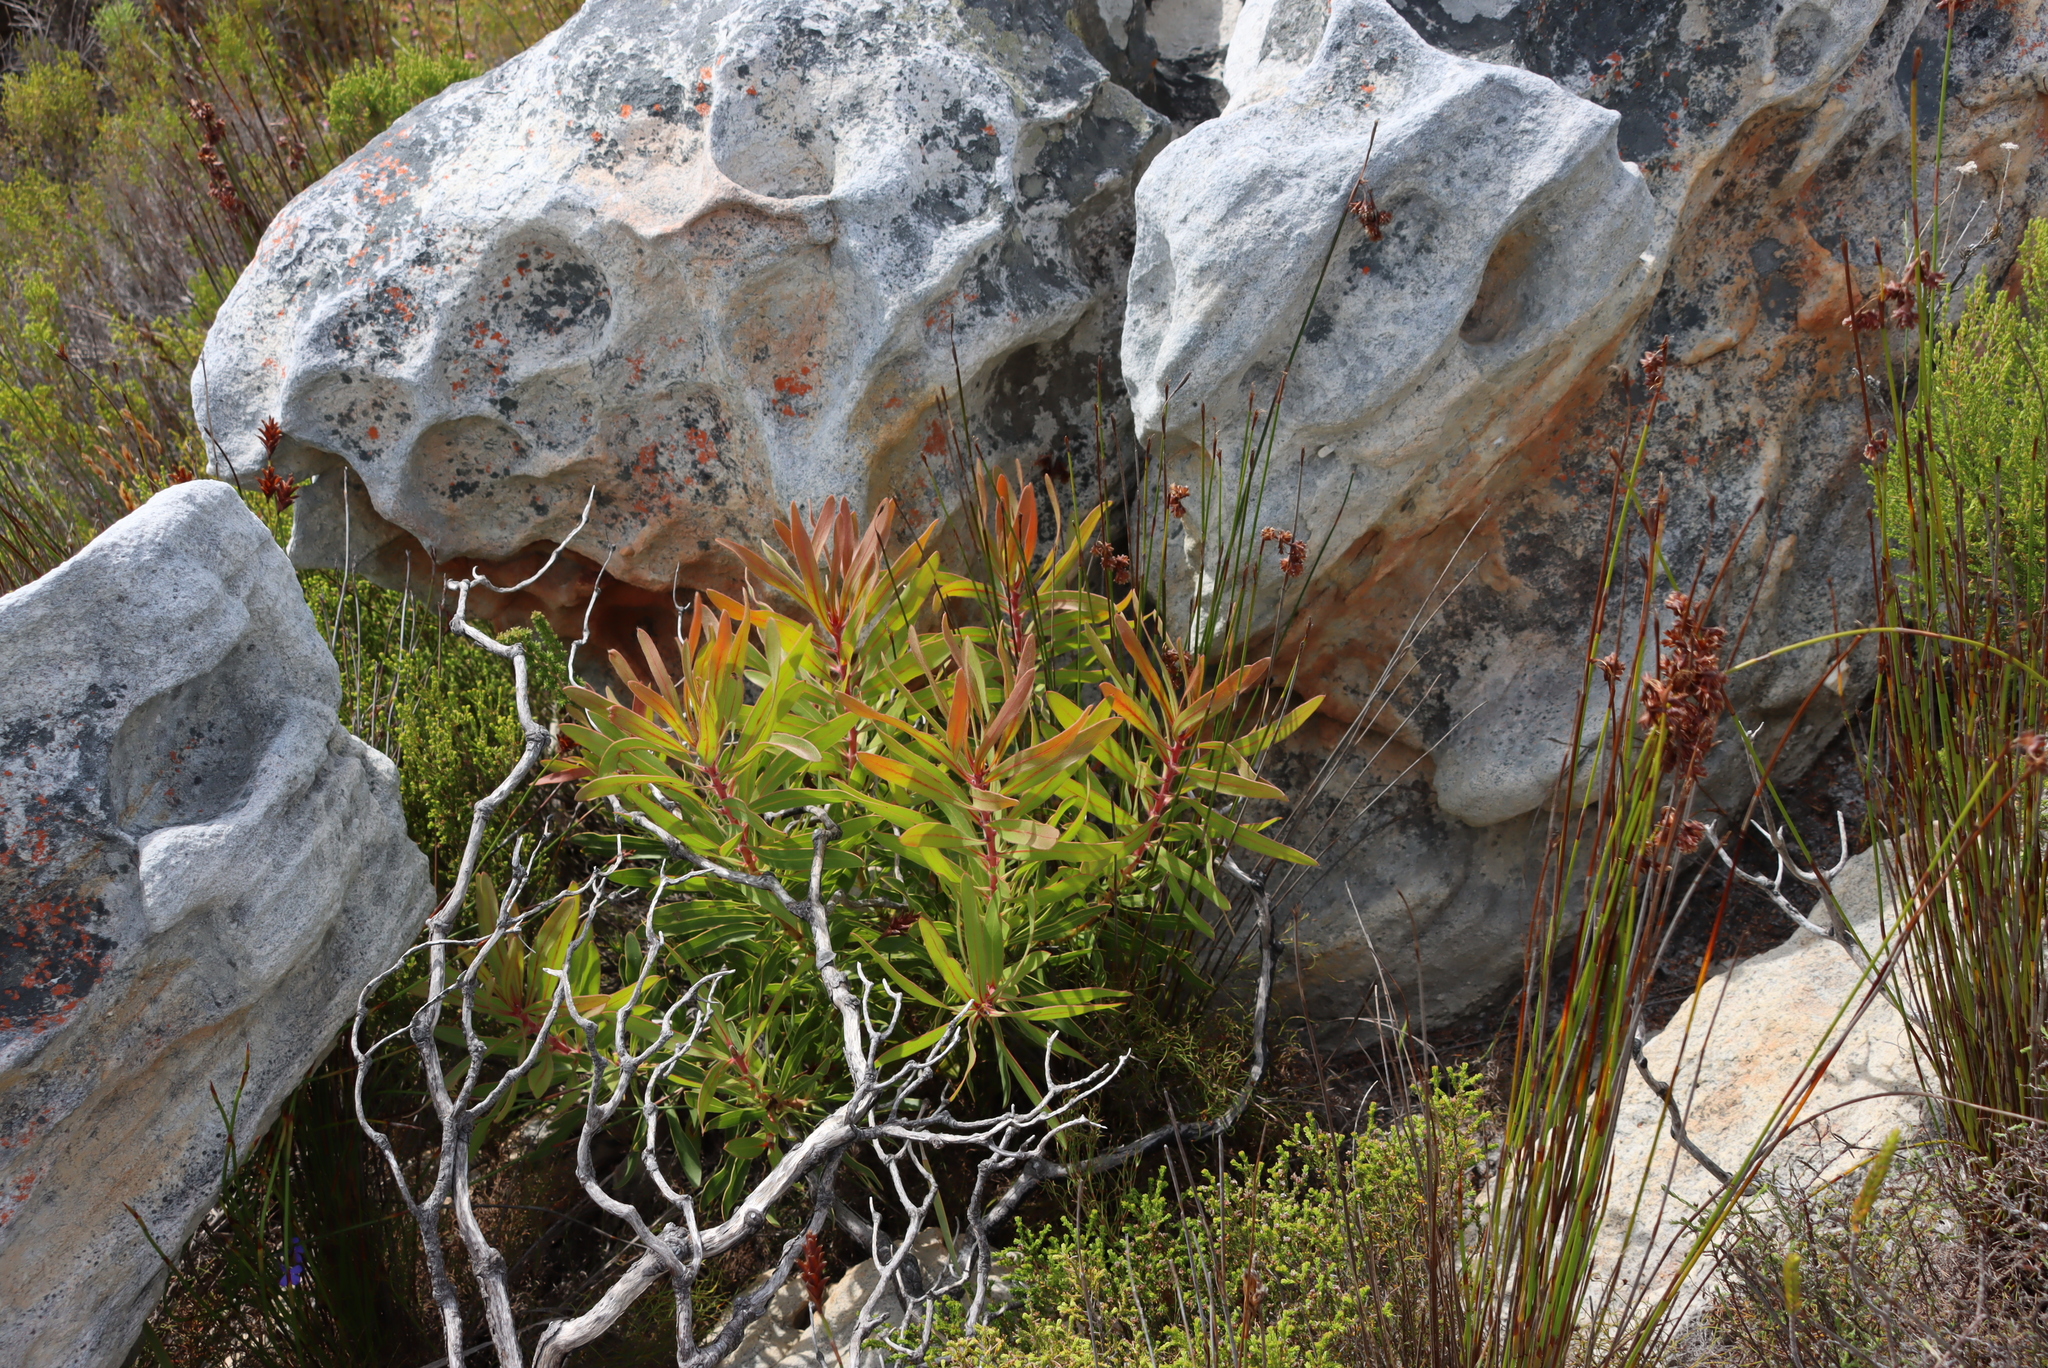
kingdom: Plantae
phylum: Tracheophyta
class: Magnoliopsida
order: Proteales
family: Proteaceae
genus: Protea
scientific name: Protea lepidocarpodendron
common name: Black-bearded protea
